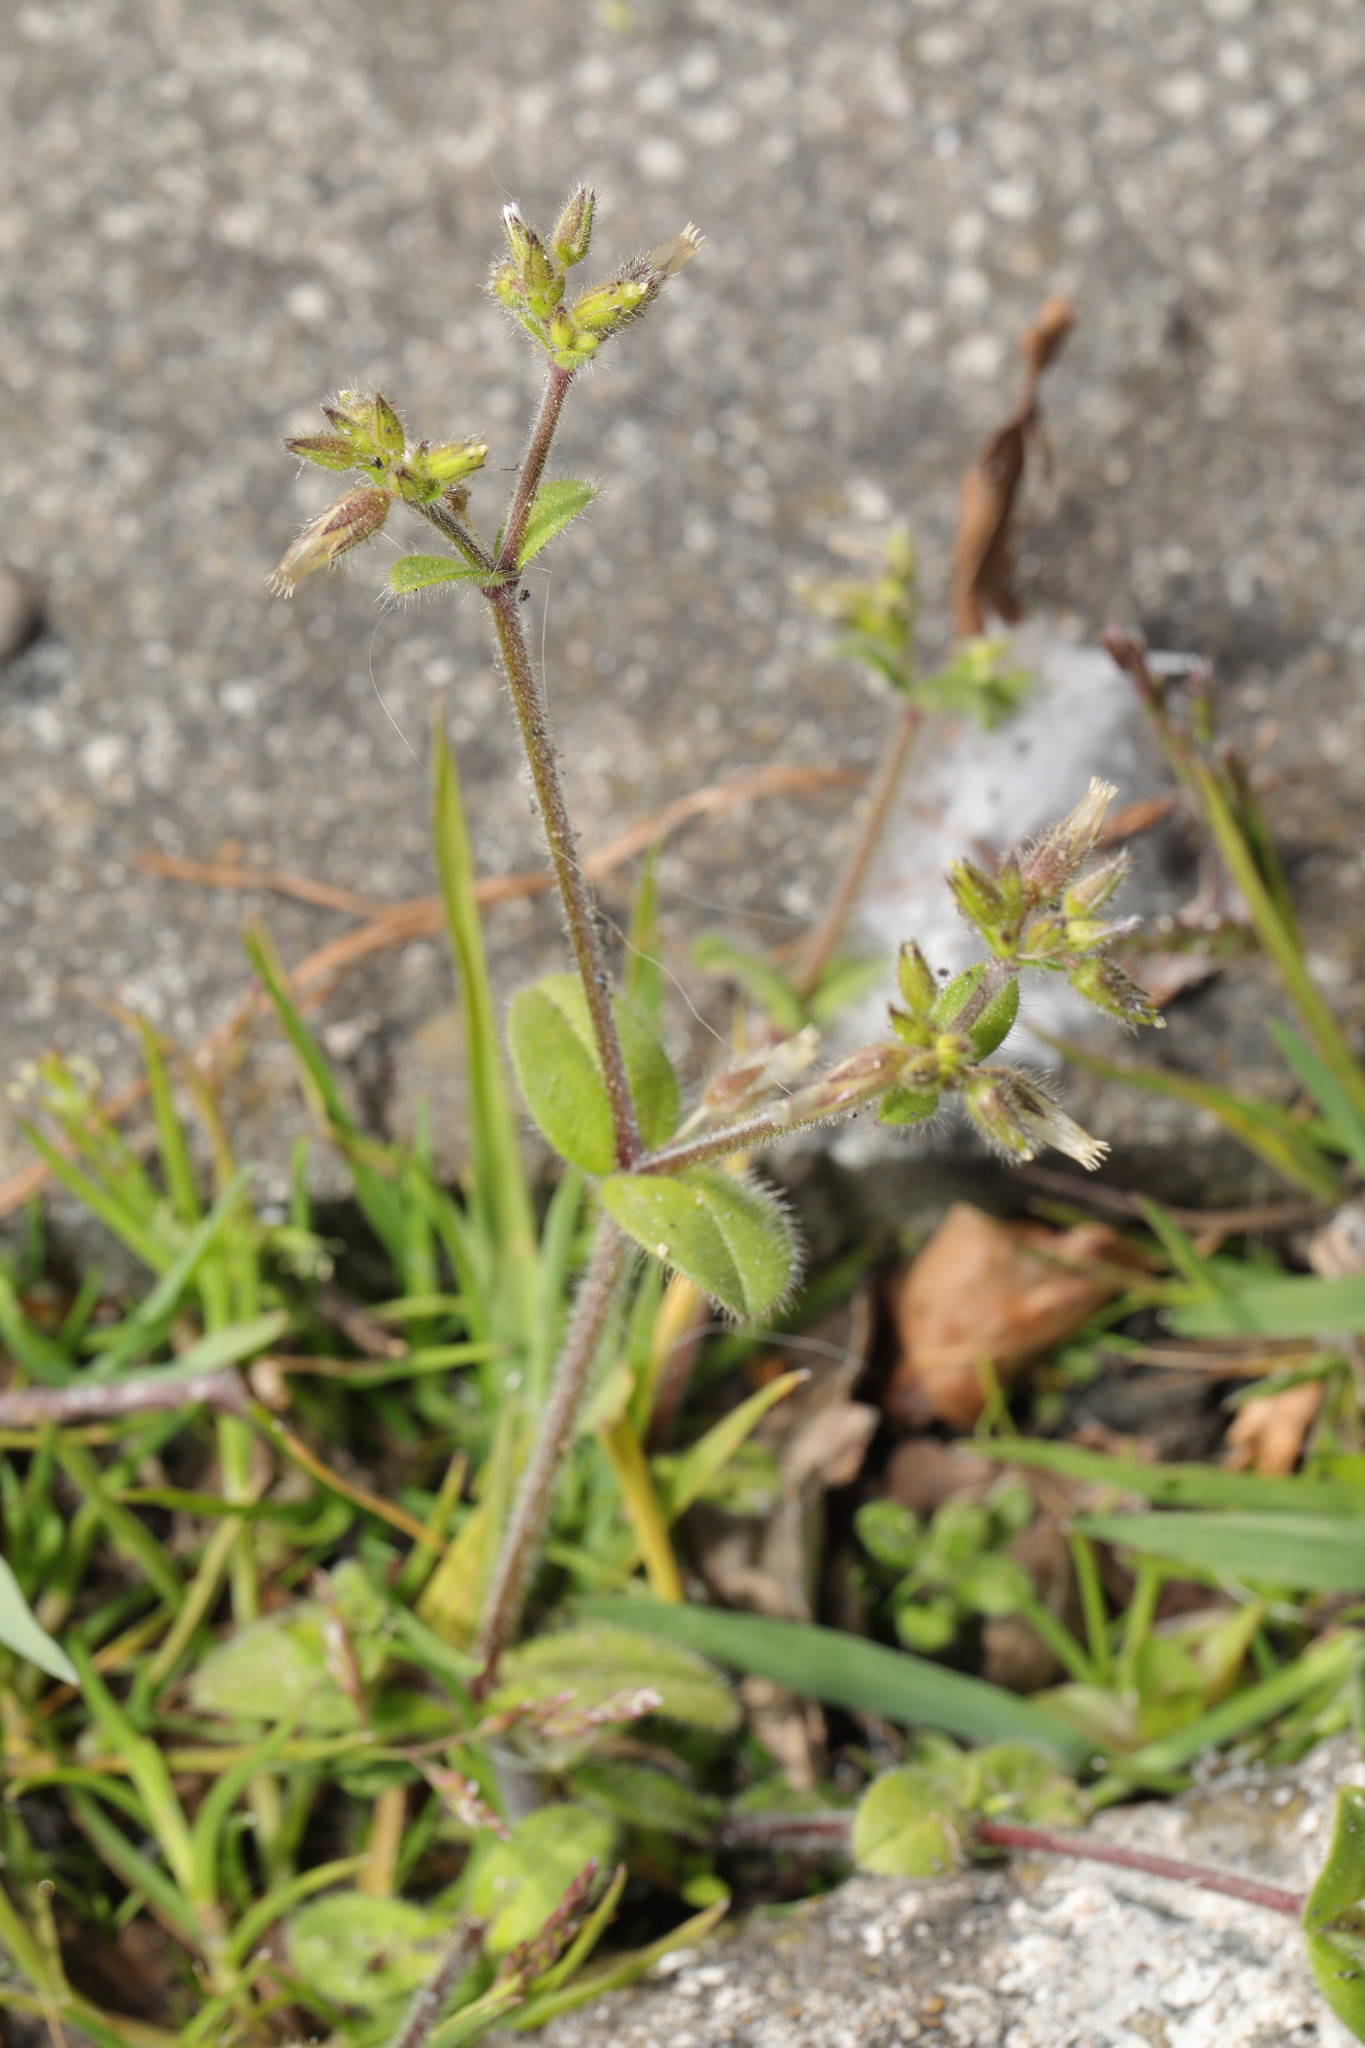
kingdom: Plantae
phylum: Tracheophyta
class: Magnoliopsida
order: Caryophyllales
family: Caryophyllaceae
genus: Cerastium
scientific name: Cerastium glomeratum
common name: Sticky chickweed
